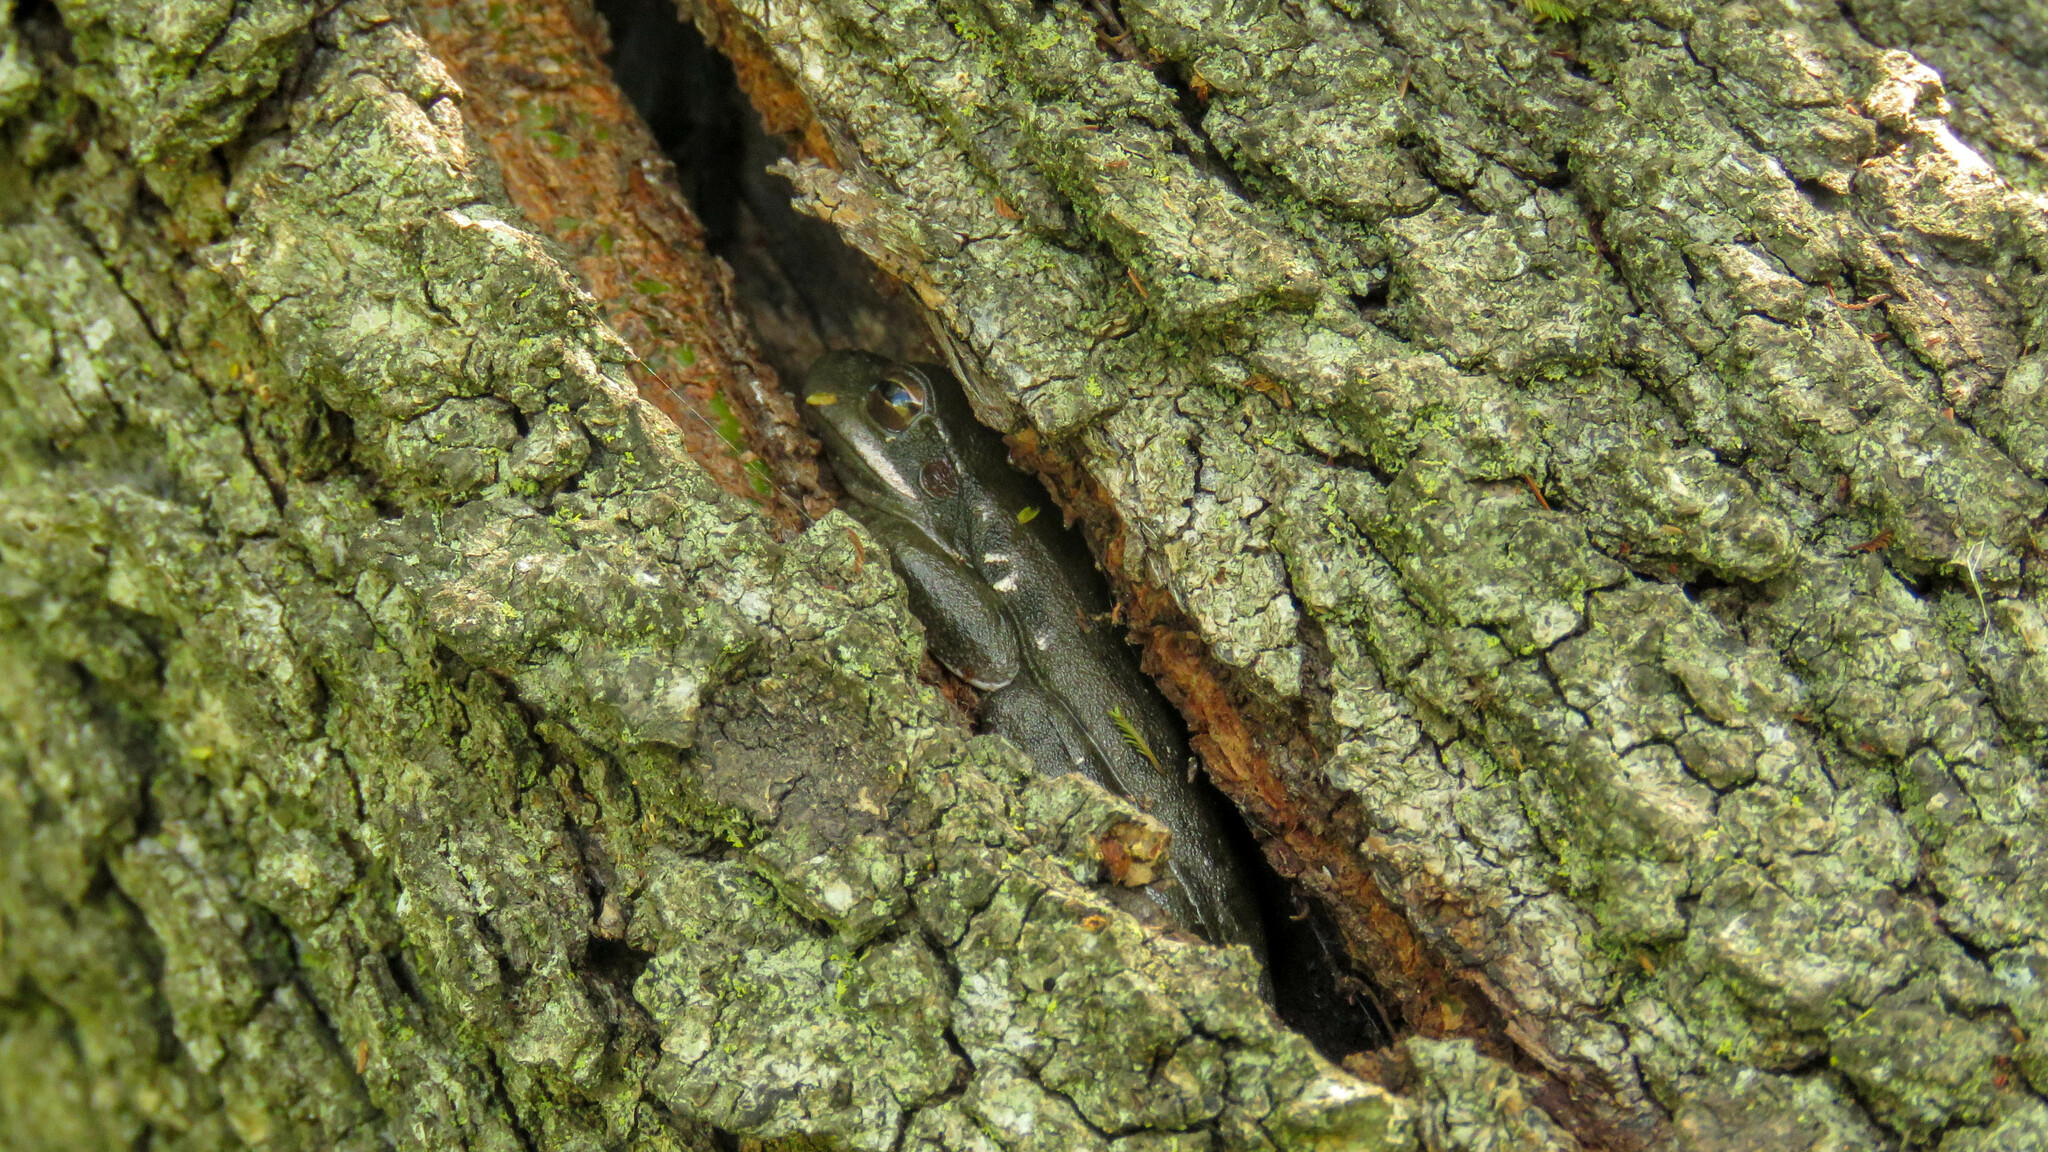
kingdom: Animalia
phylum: Chordata
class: Amphibia
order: Anura
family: Hylidae
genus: Boana
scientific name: Boana pulchella
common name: Montevideo treefrog
